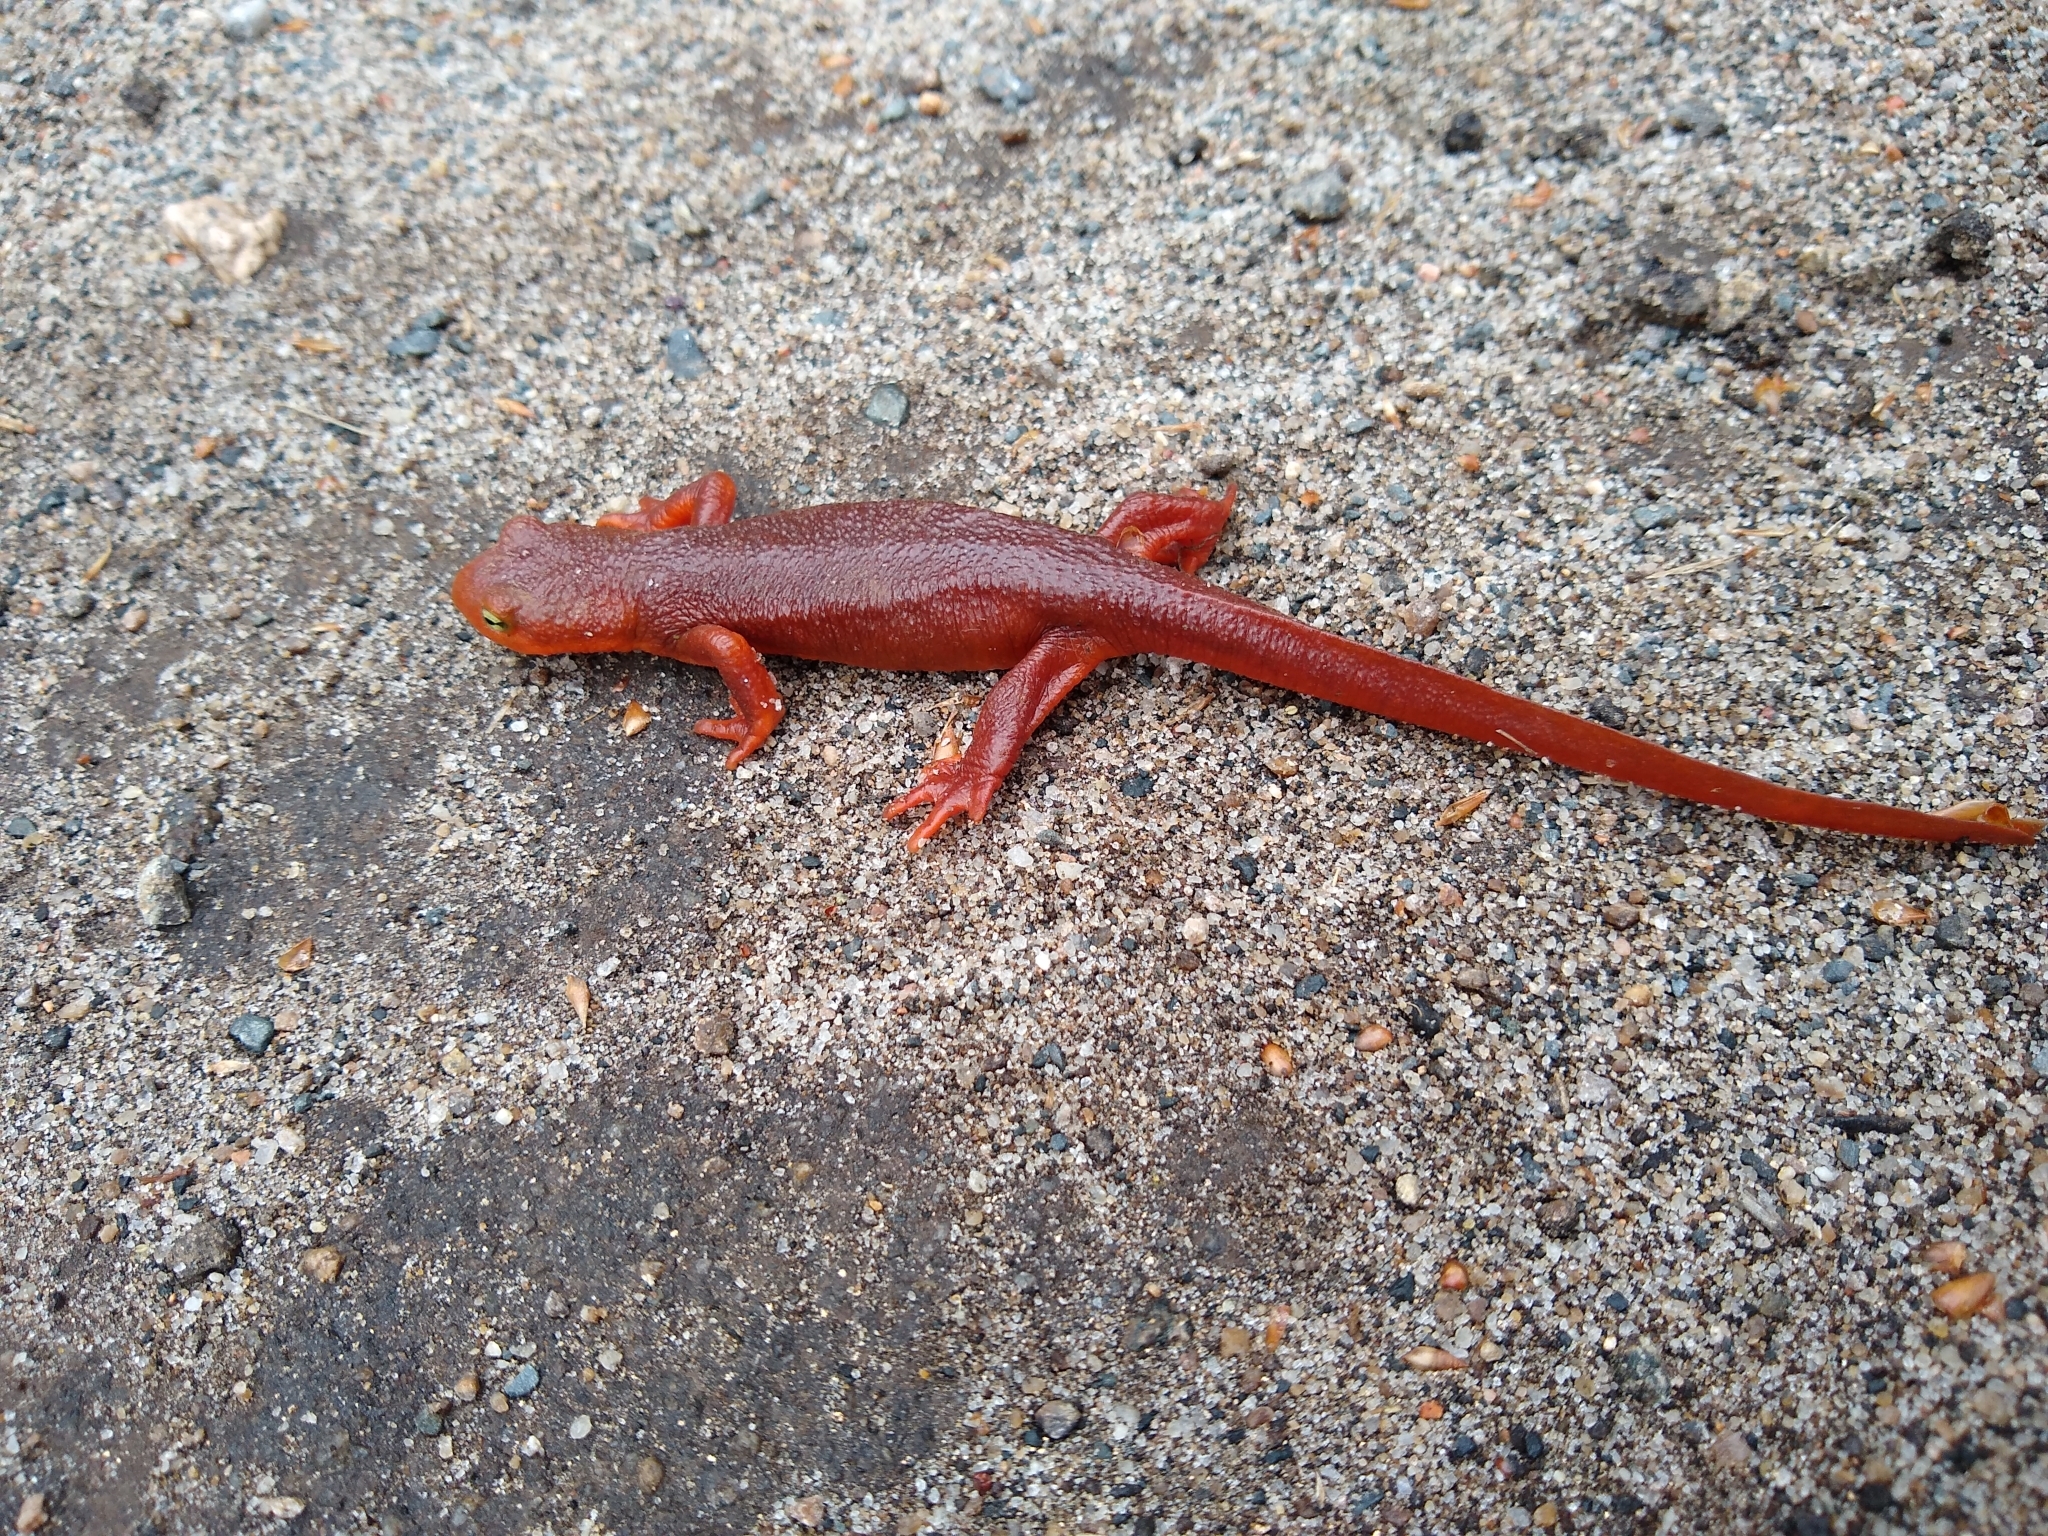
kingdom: Animalia
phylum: Chordata
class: Amphibia
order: Caudata
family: Salamandridae
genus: Taricha
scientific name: Taricha
